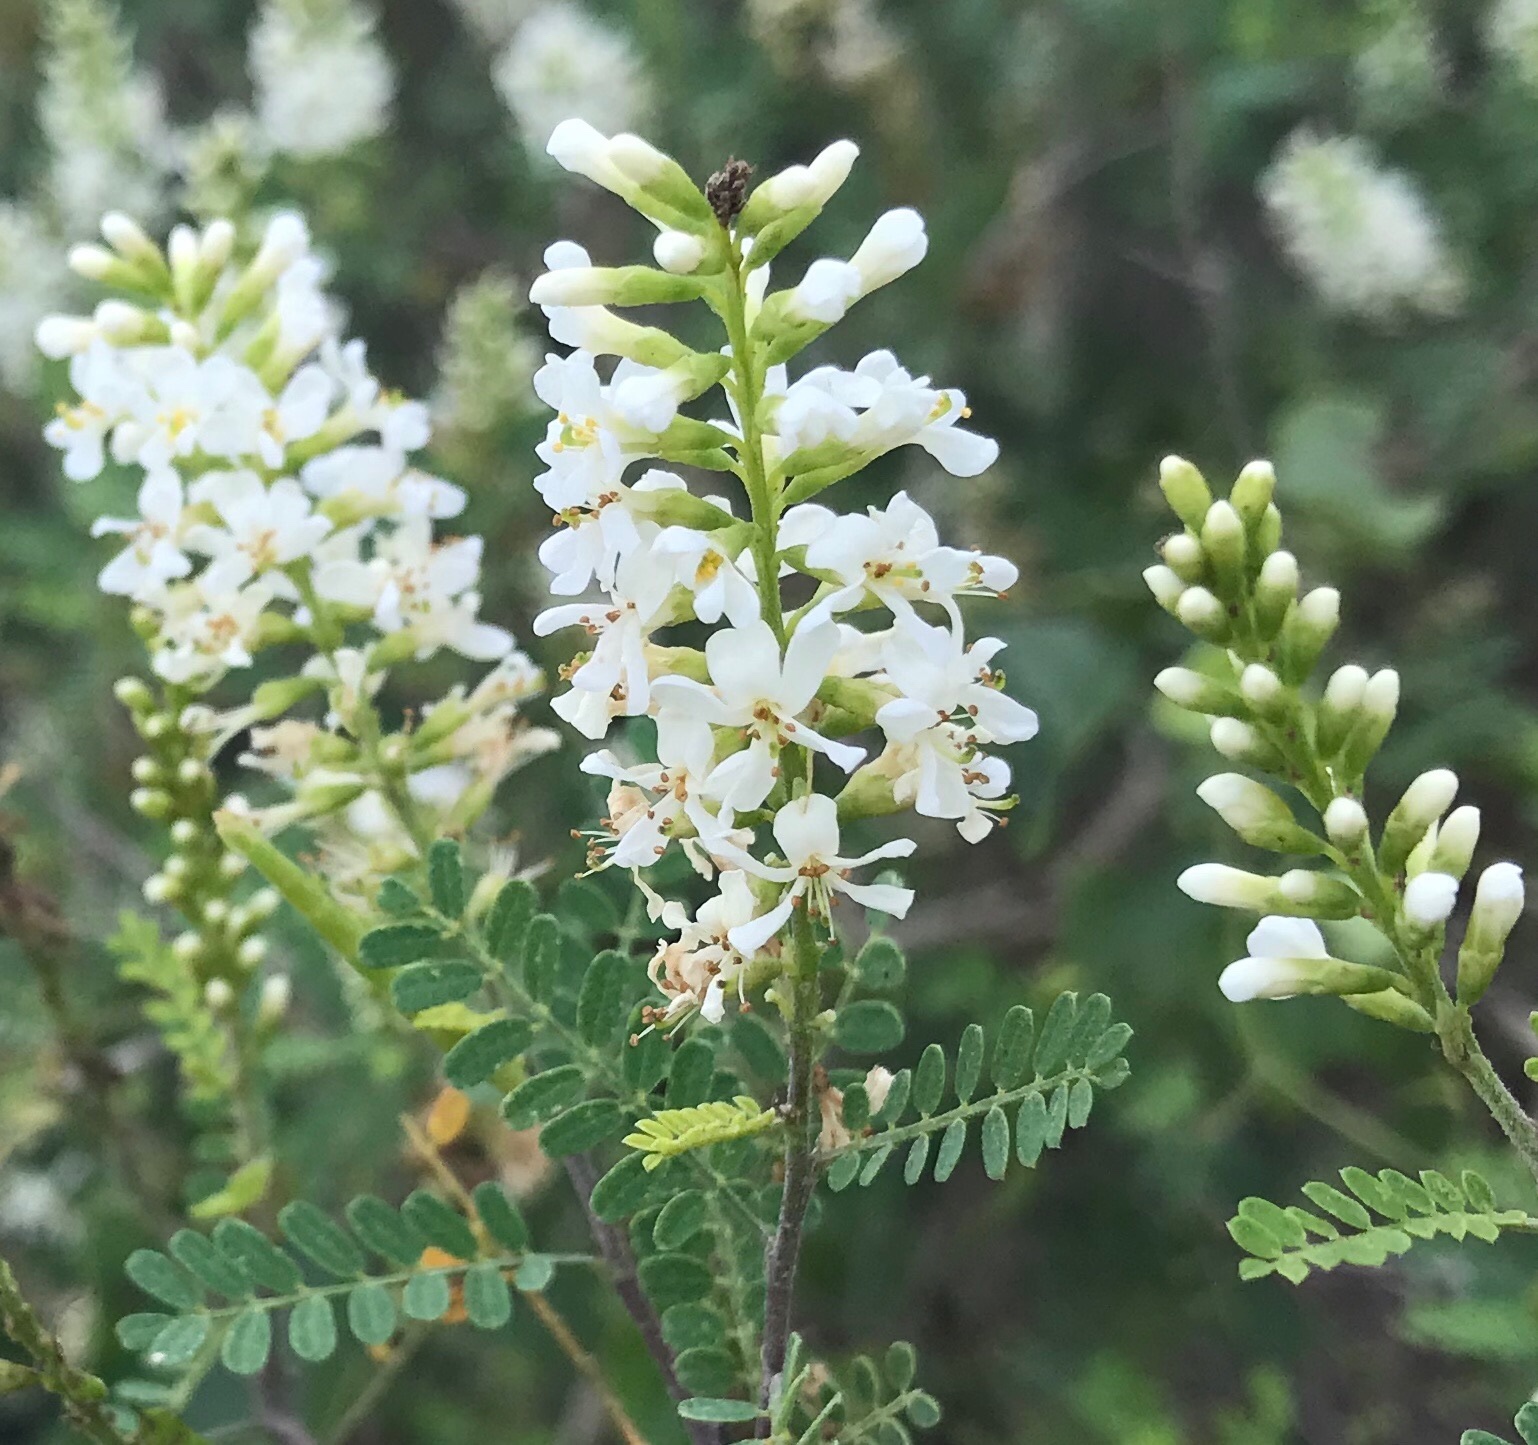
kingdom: Plantae
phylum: Tracheophyta
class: Magnoliopsida
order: Fabales
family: Fabaceae
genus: Eysenhardtia
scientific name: Eysenhardtia texana
